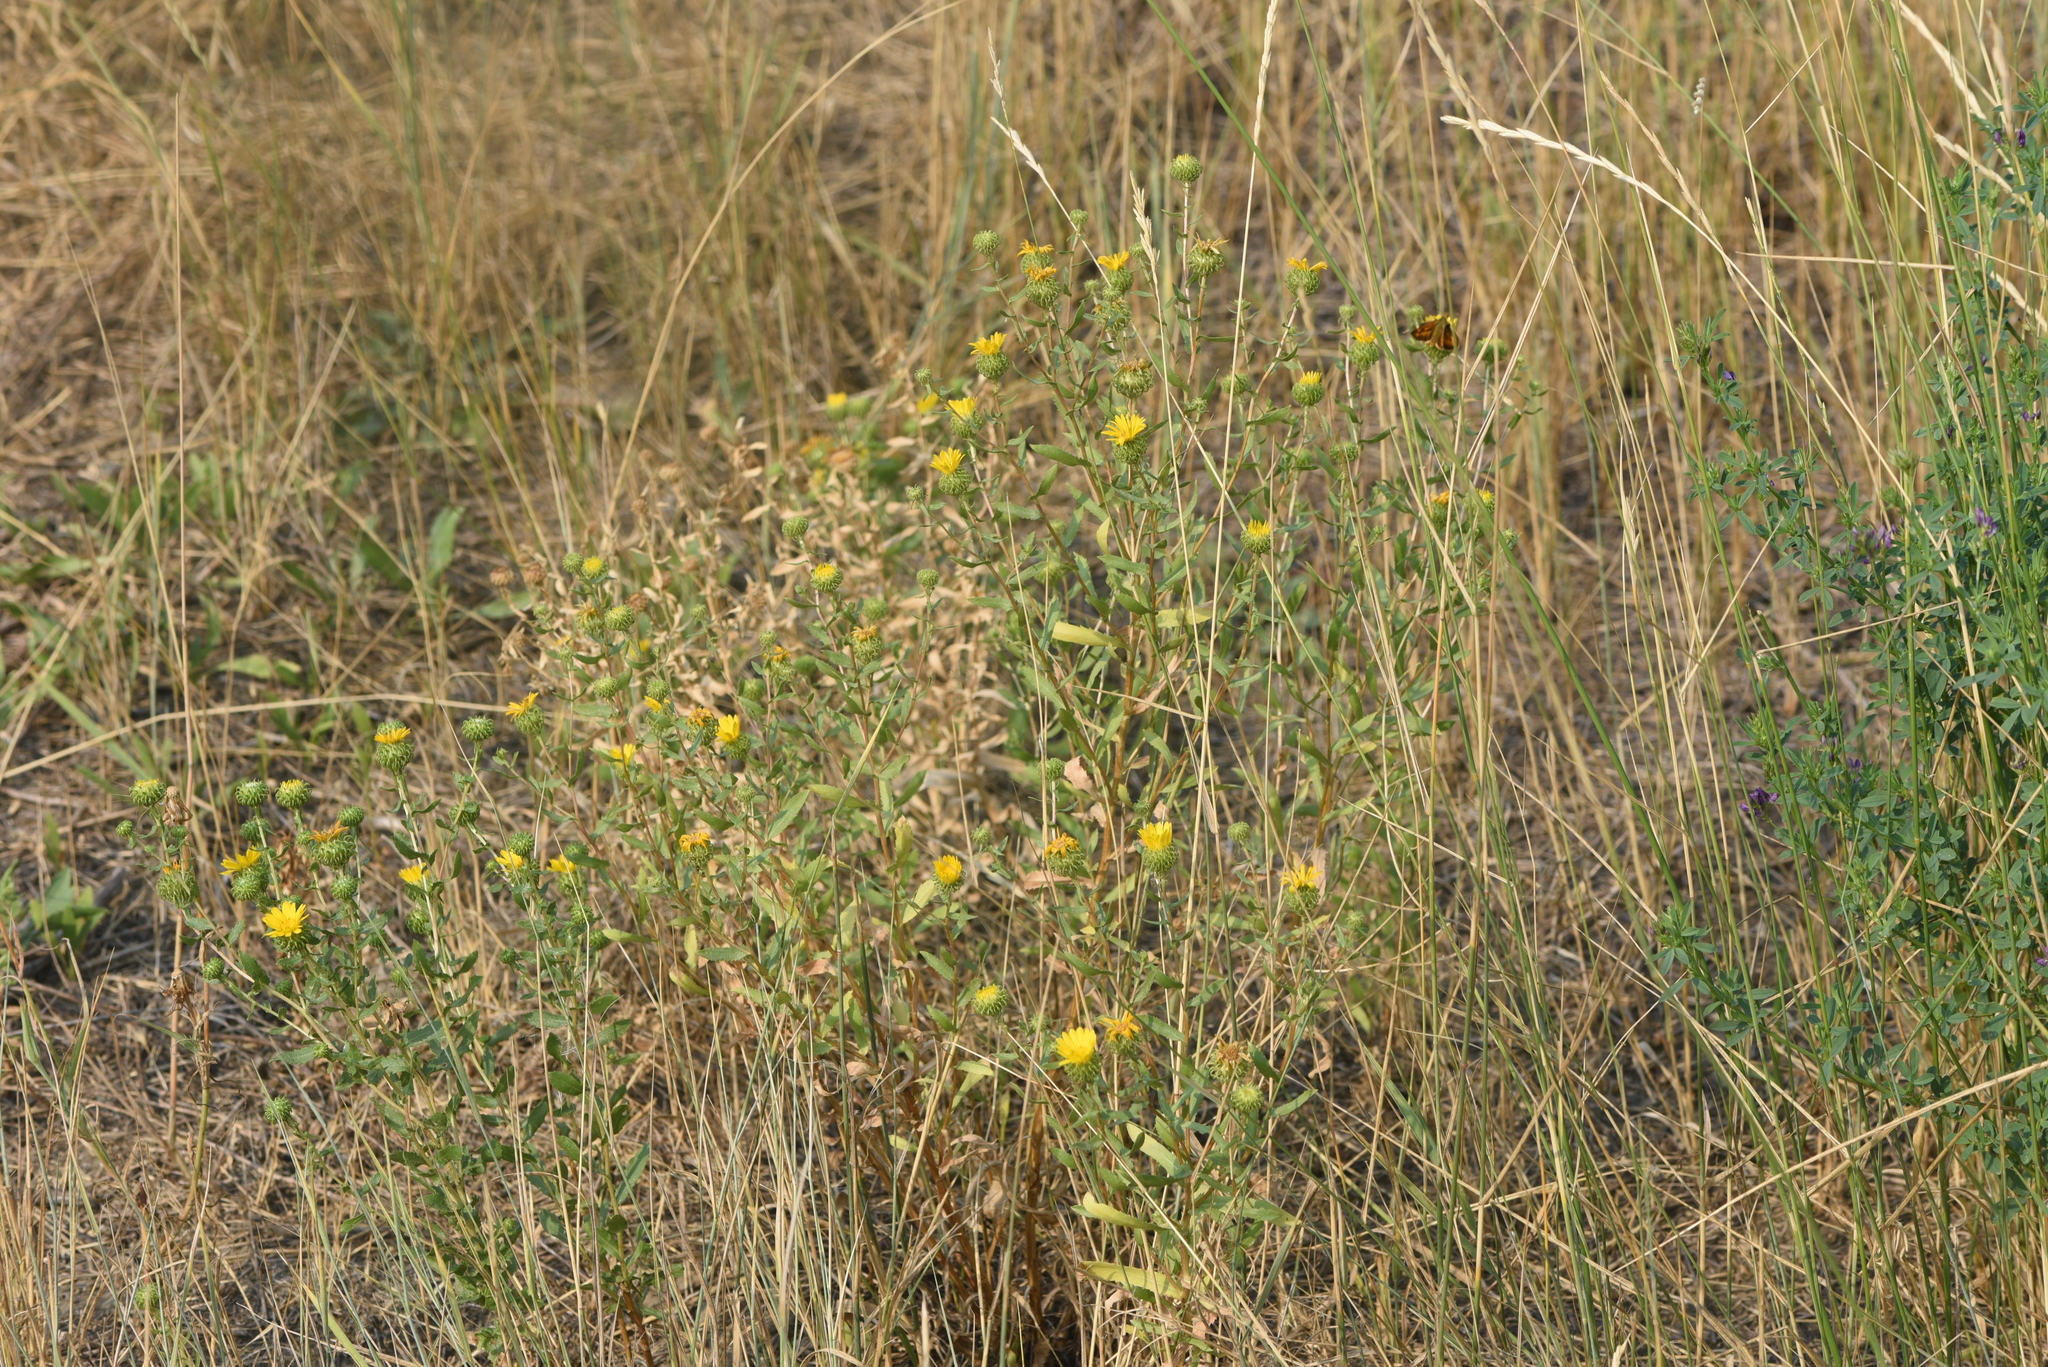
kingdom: Plantae
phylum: Tracheophyta
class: Magnoliopsida
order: Asterales
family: Asteraceae
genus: Grindelia
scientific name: Grindelia squarrosa
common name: Curly-cup gumweed
